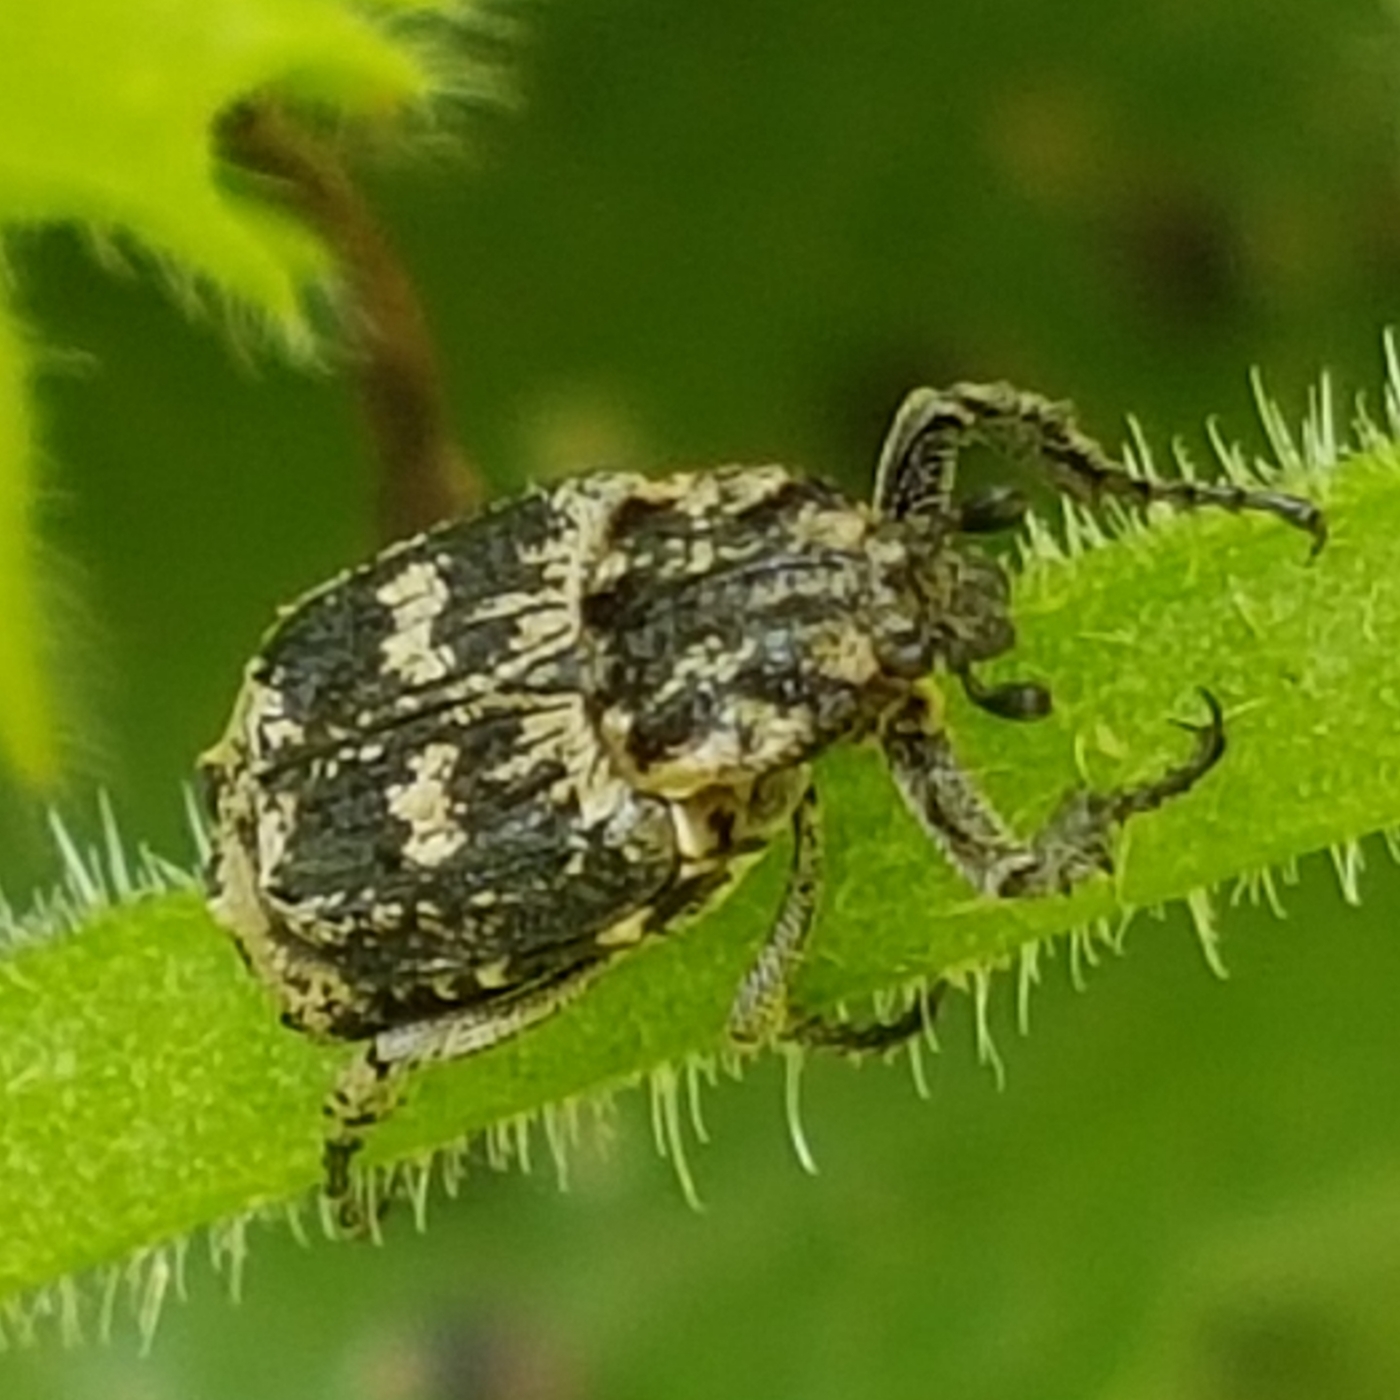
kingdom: Animalia
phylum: Arthropoda
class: Insecta
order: Coleoptera
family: Scarabaeidae
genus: Valgus
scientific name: Valgus hemipterus
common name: Bug flower chafer
